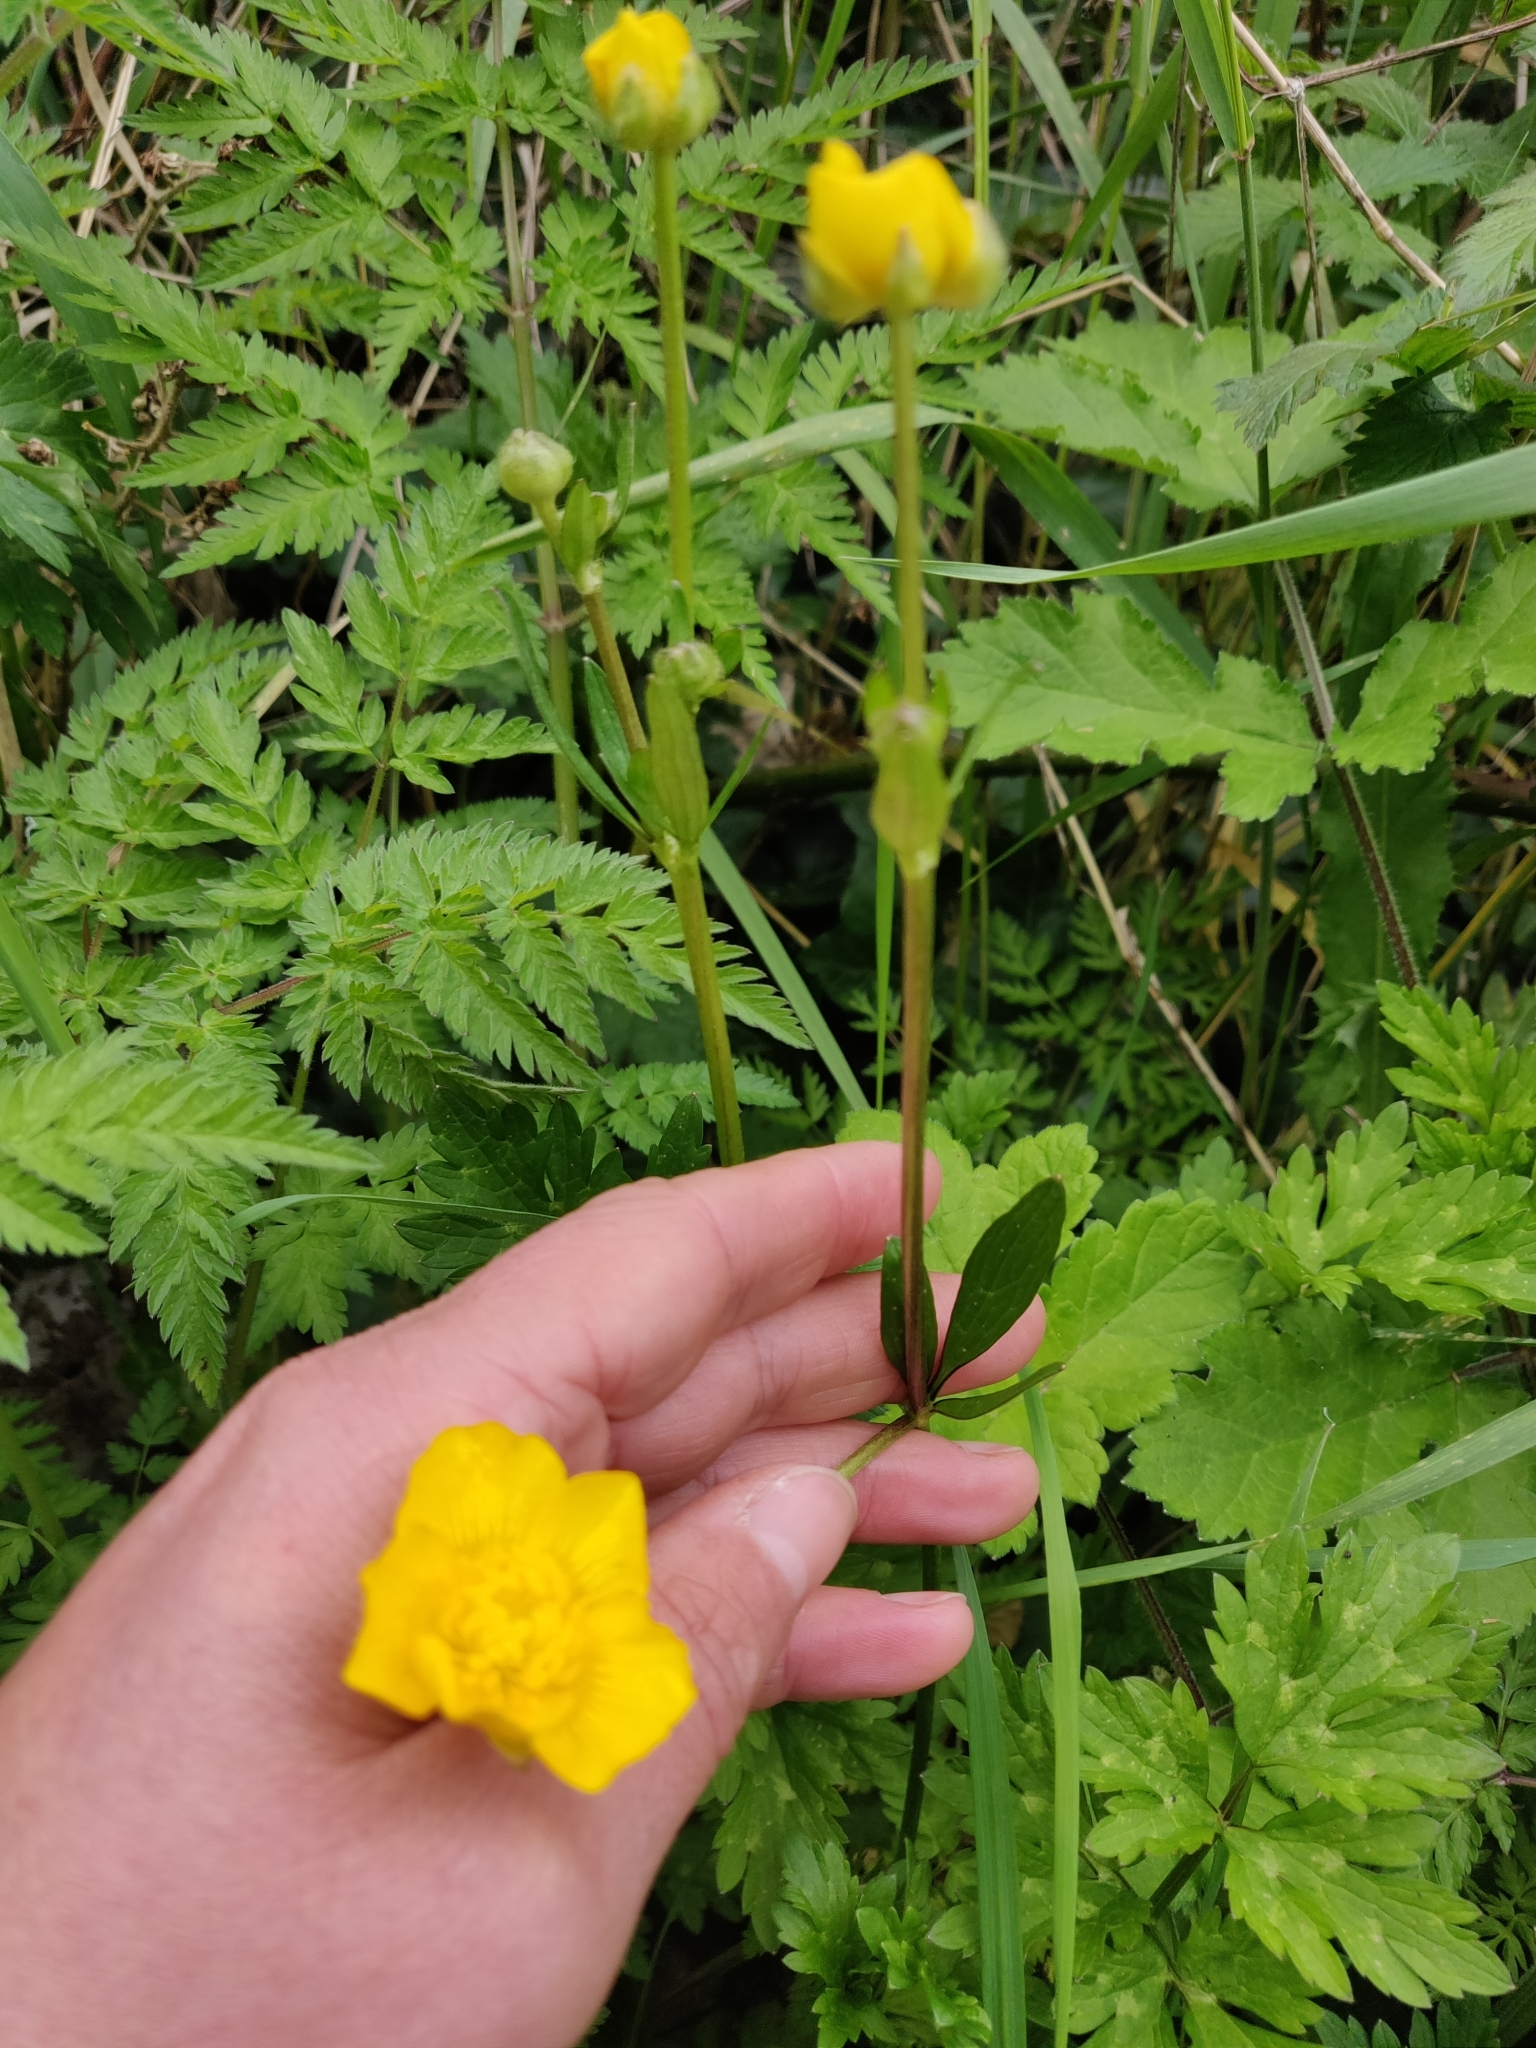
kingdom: Plantae
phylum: Tracheophyta
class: Magnoliopsida
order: Ranunculales
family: Ranunculaceae
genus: Ranunculus
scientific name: Ranunculus repens
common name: Creeping buttercup
